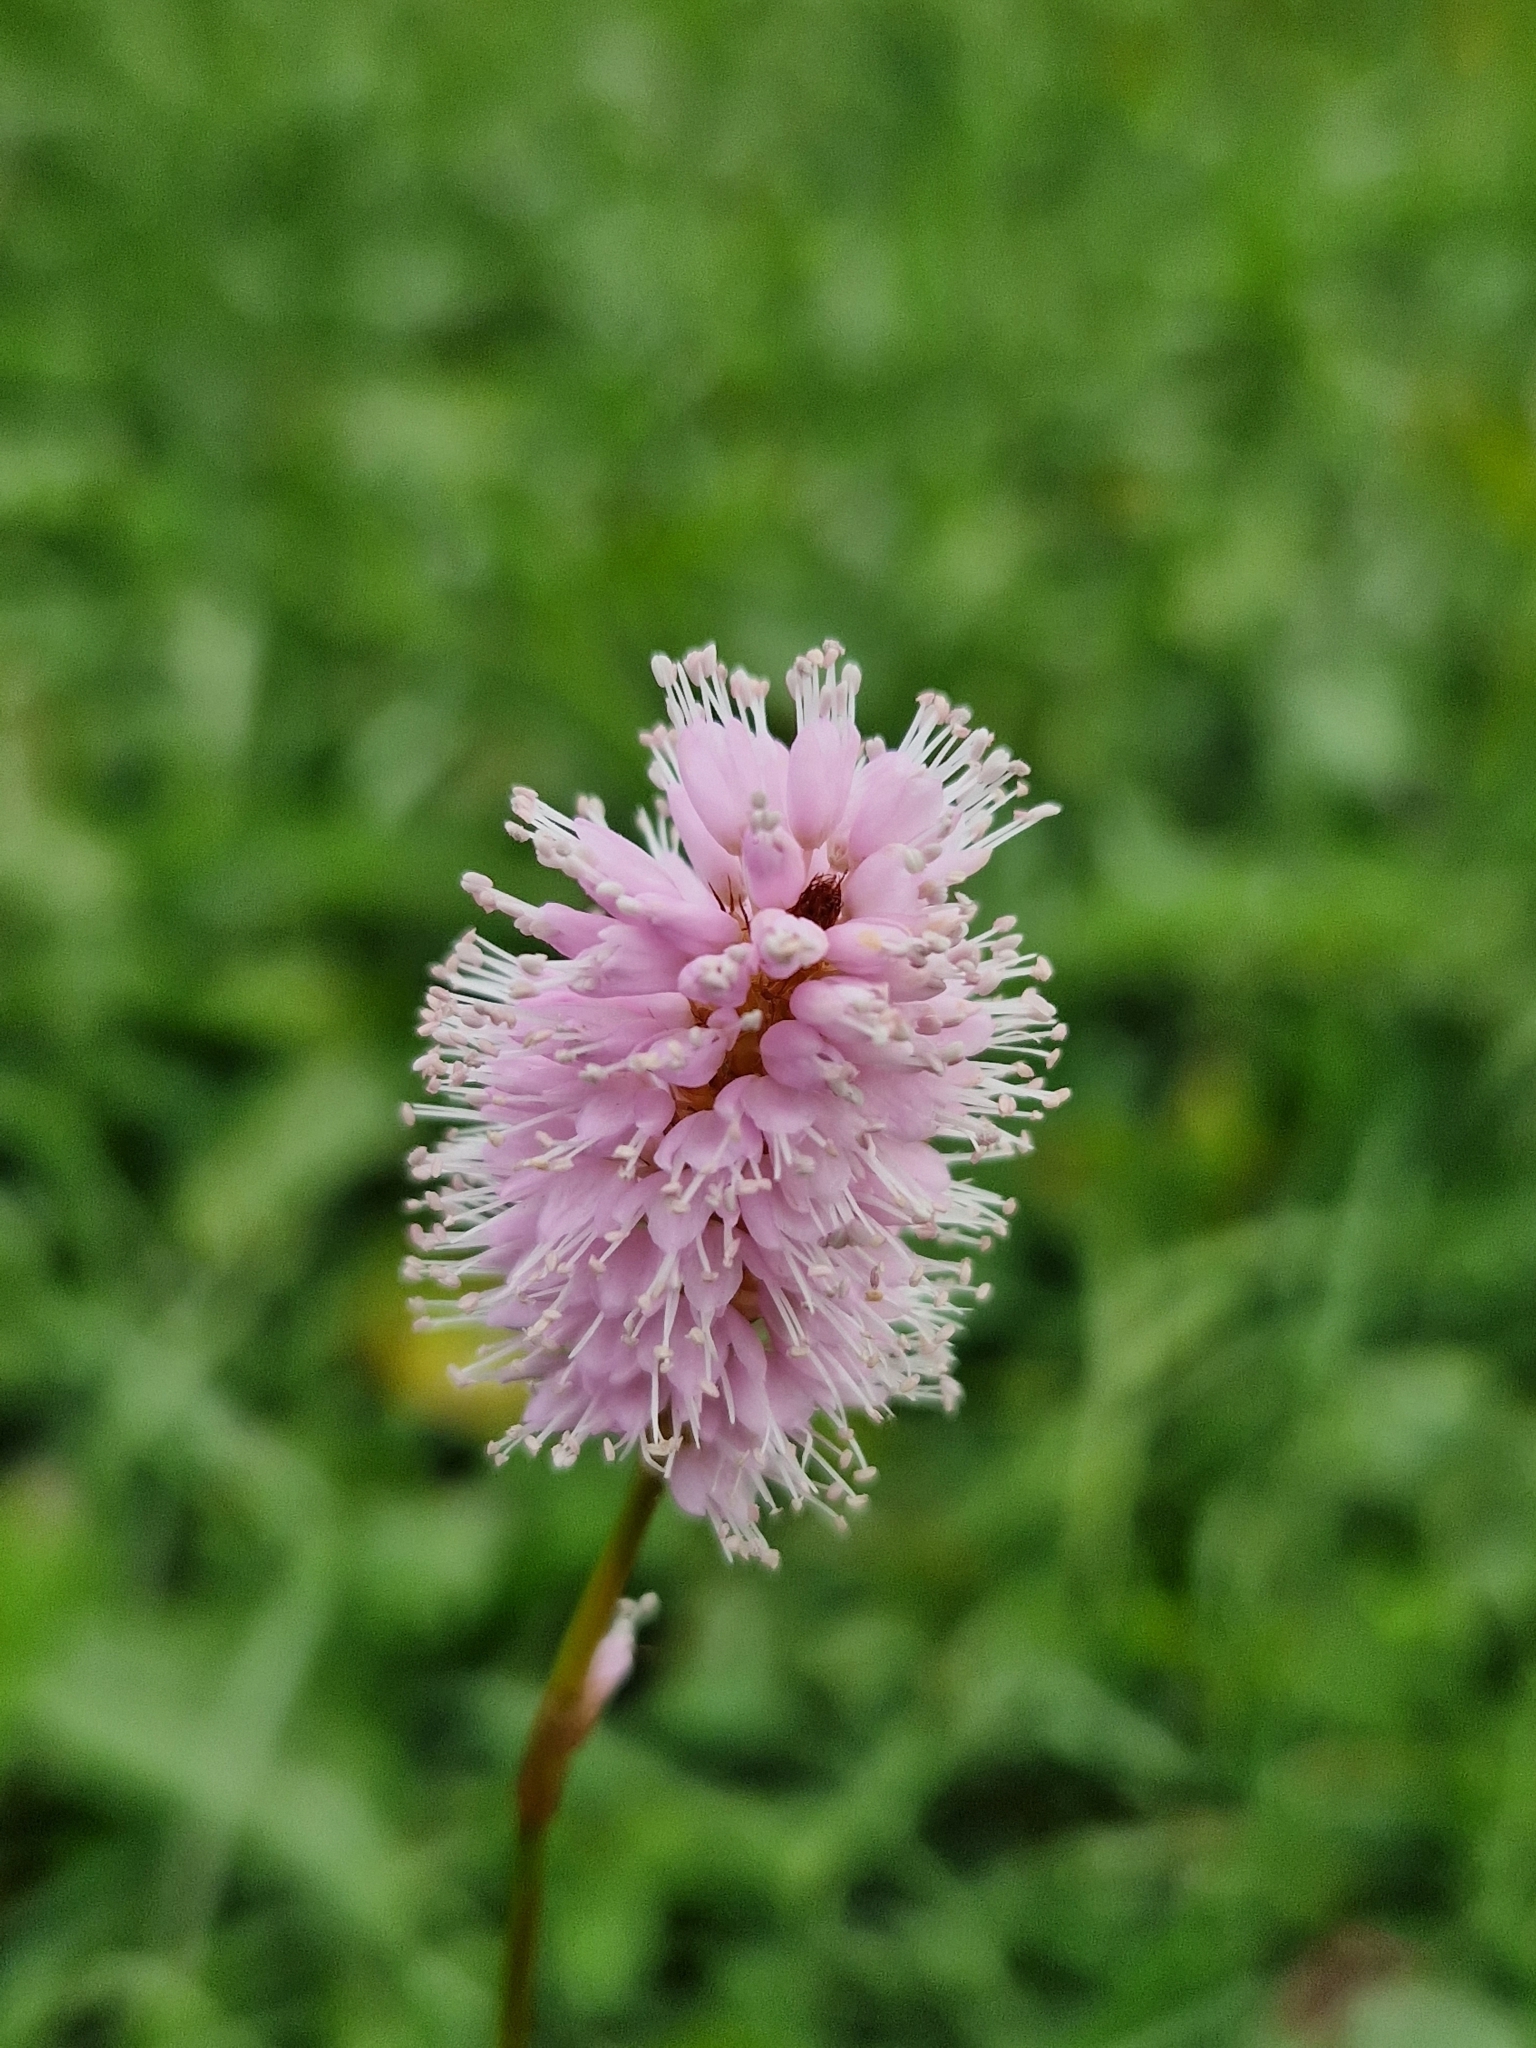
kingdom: Plantae
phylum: Tracheophyta
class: Magnoliopsida
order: Caryophyllales
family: Polygonaceae
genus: Bistorta
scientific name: Bistorta officinalis
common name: Common bistort
